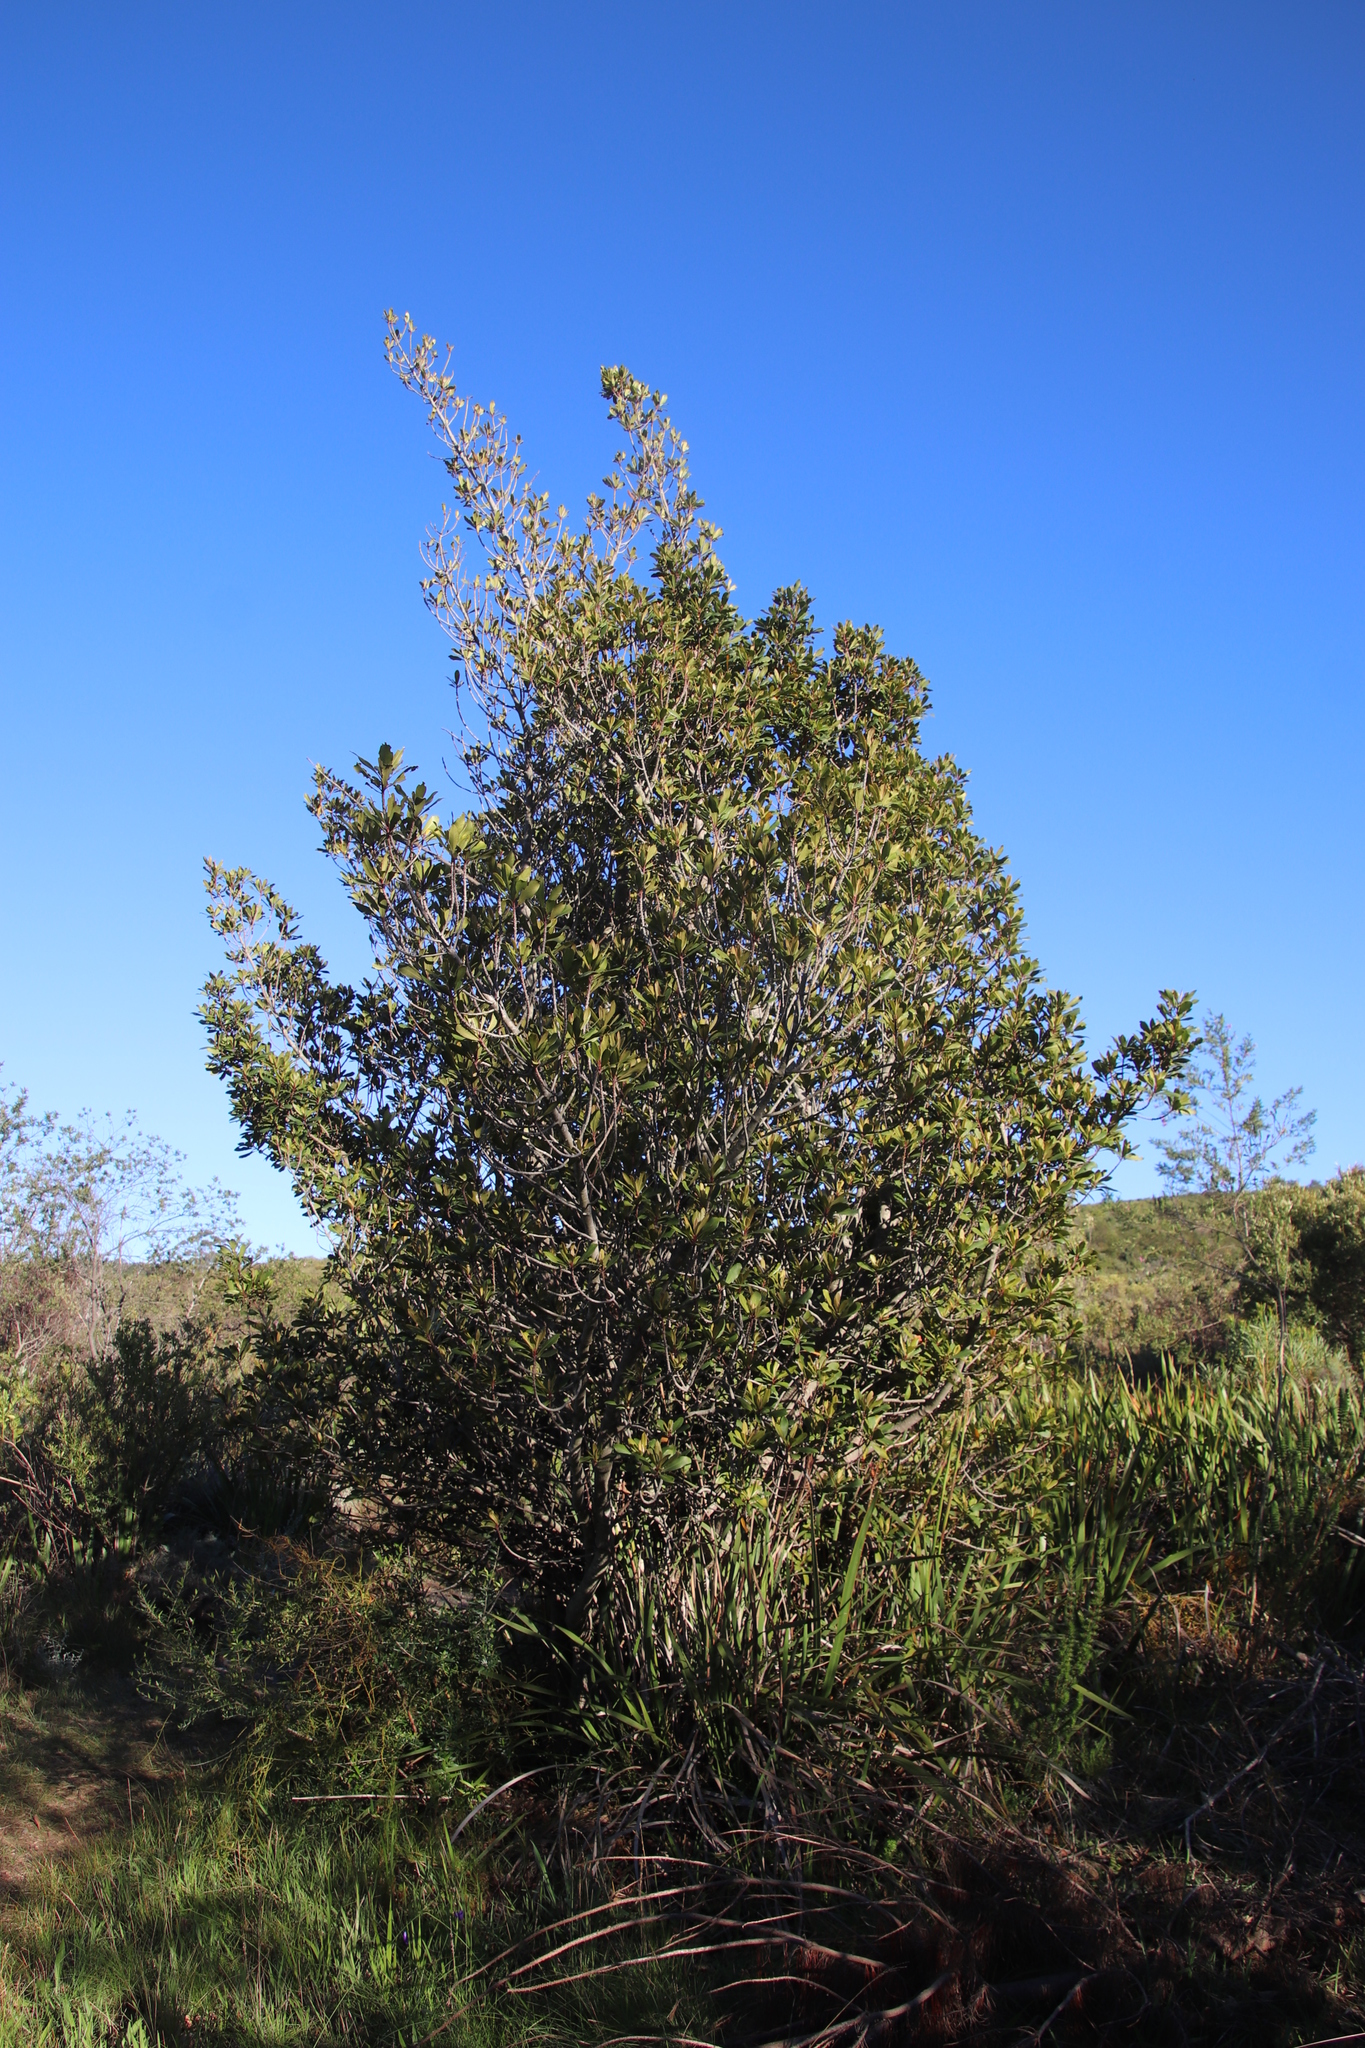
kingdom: Plantae
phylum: Tracheophyta
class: Magnoliopsida
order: Ericales
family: Primulaceae
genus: Myrsine
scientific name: Myrsine melanophloeos
